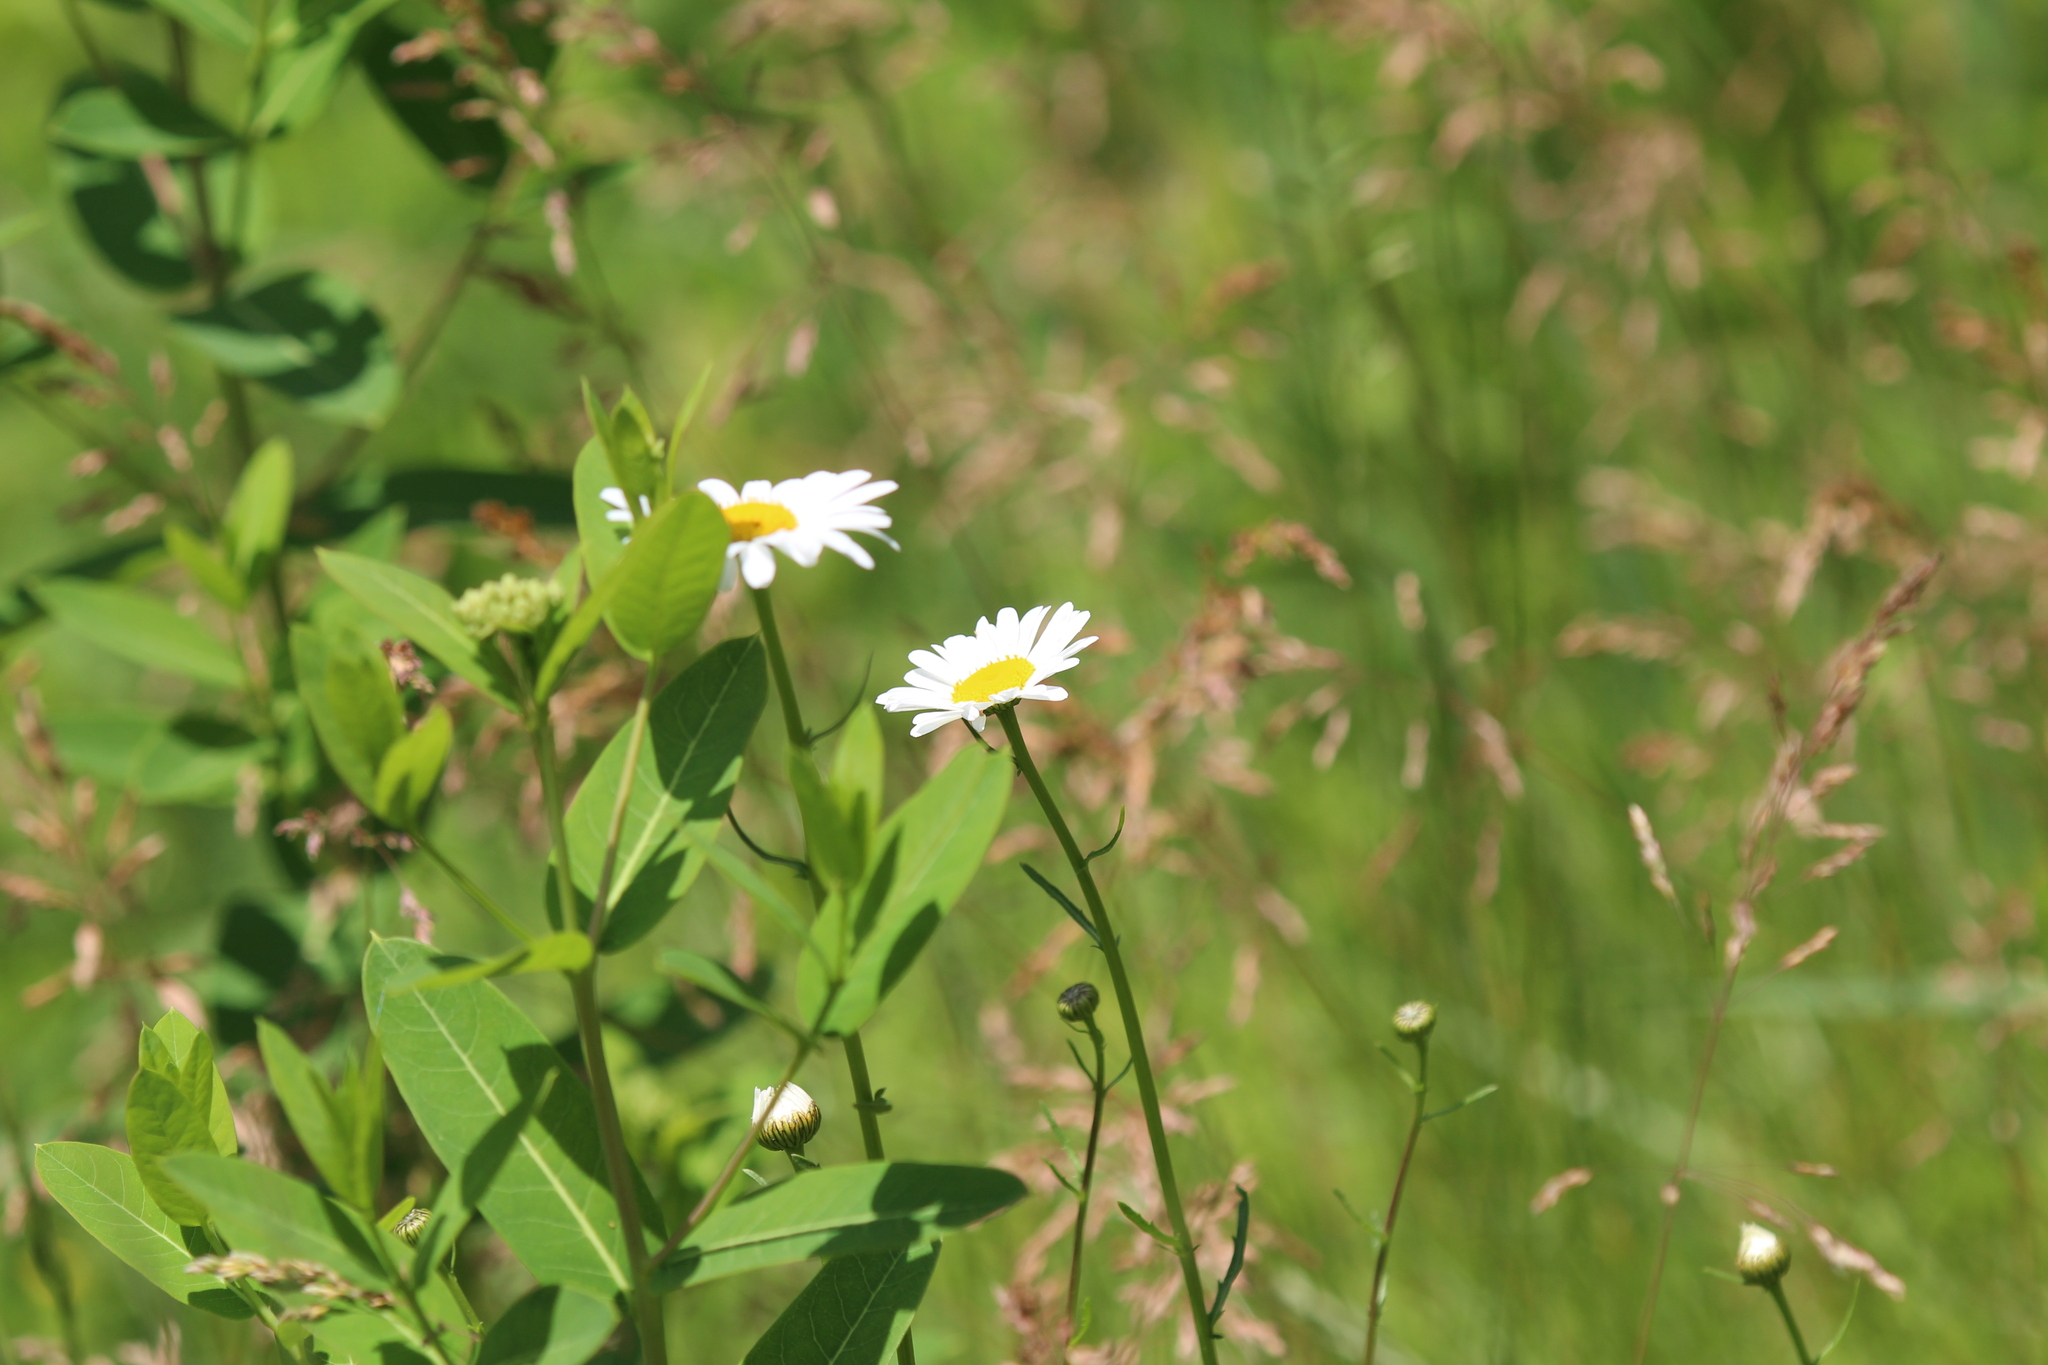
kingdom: Plantae
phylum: Tracheophyta
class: Magnoliopsida
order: Asterales
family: Asteraceae
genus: Leucanthemum
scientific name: Leucanthemum vulgare
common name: Oxeye daisy
